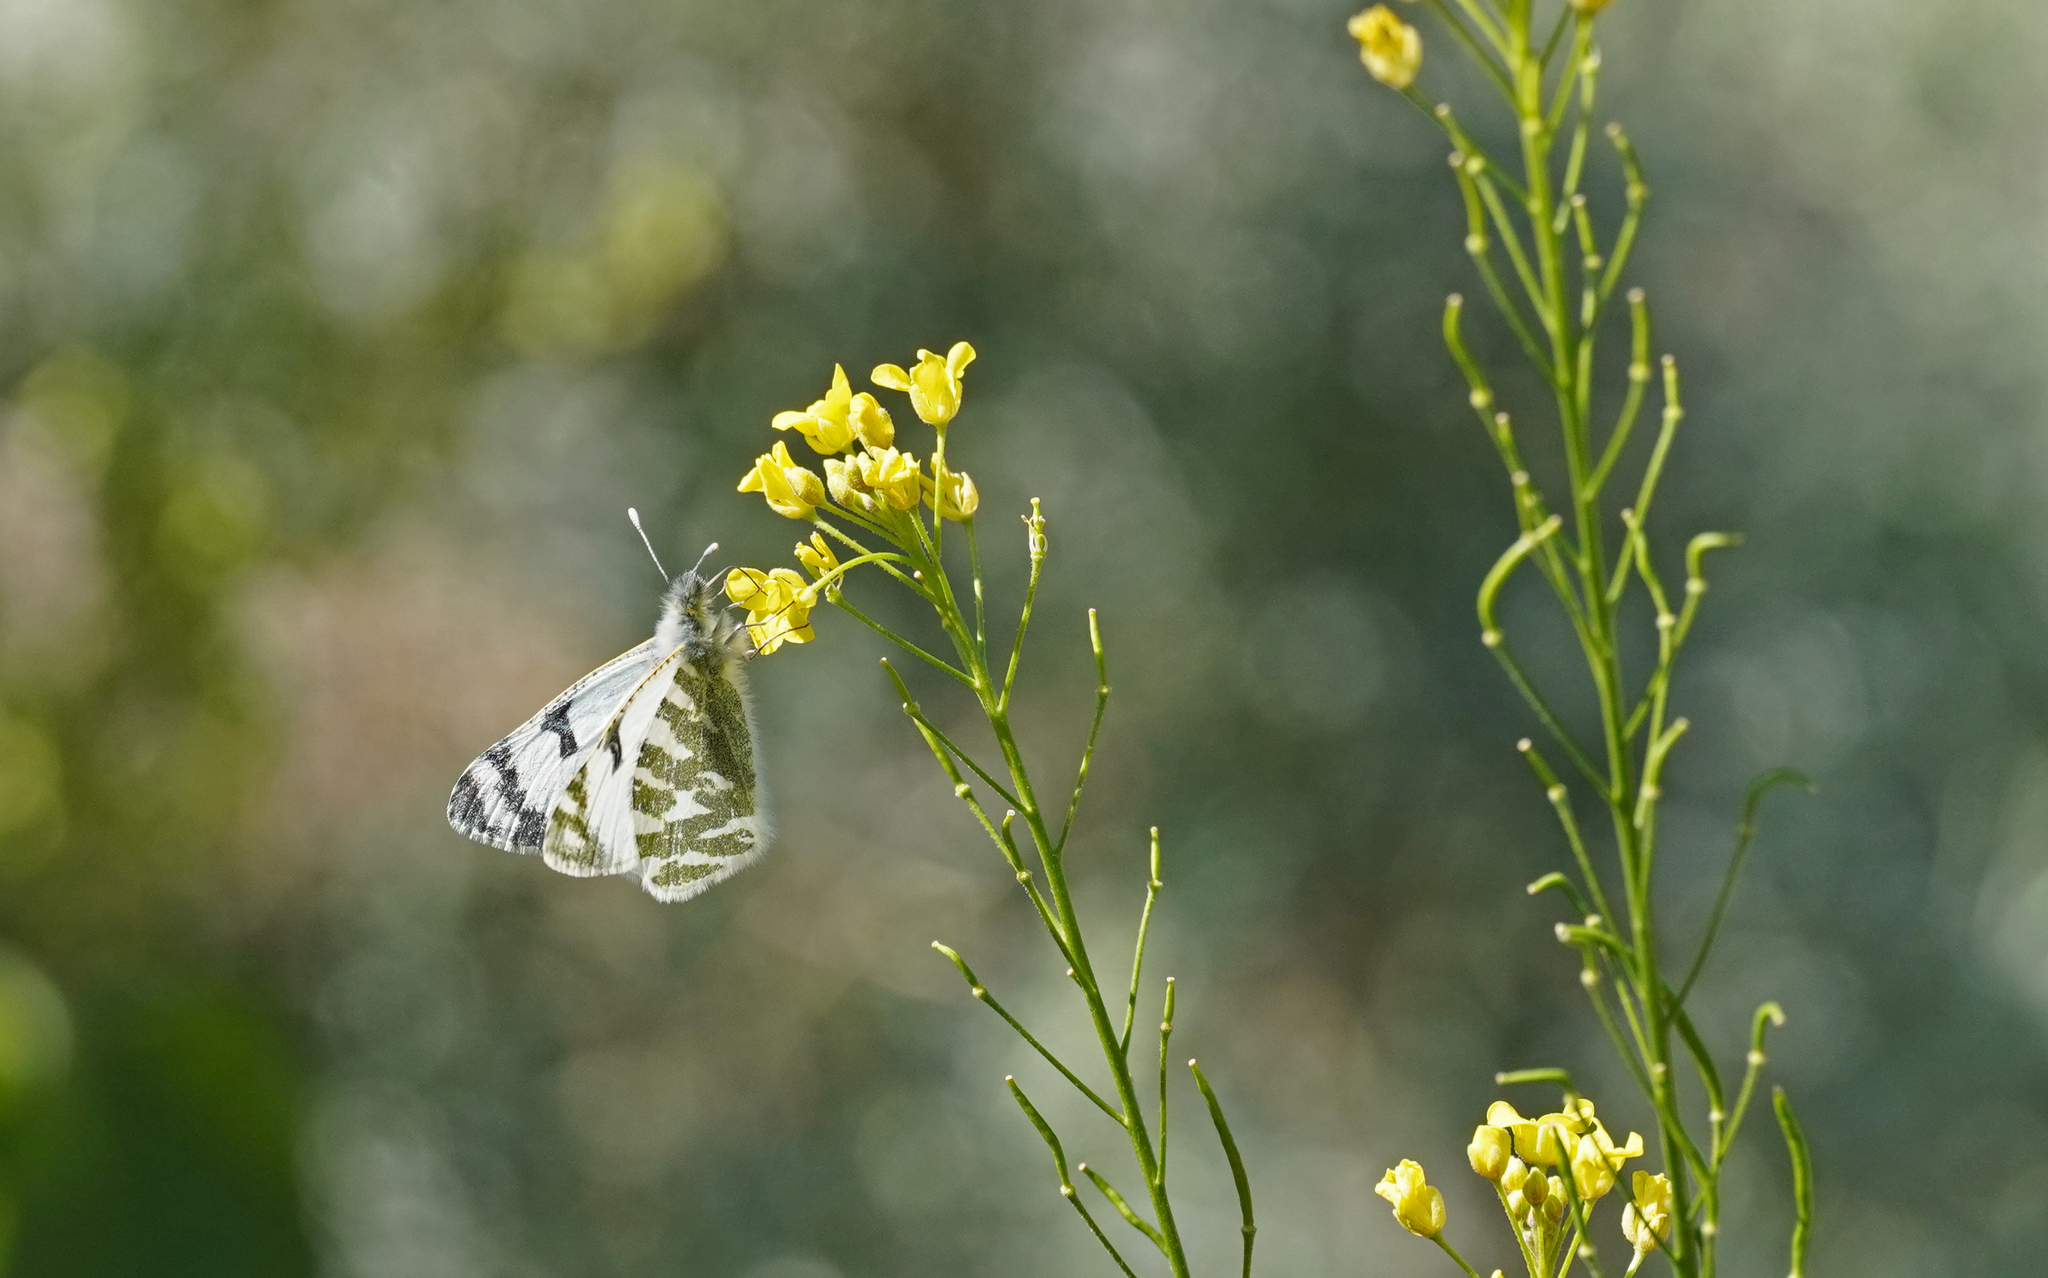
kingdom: Animalia
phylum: Arthropoda
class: Insecta
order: Lepidoptera
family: Pieridae
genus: Euchloe
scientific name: Euchloe eversi
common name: Tenerife green-striped white
